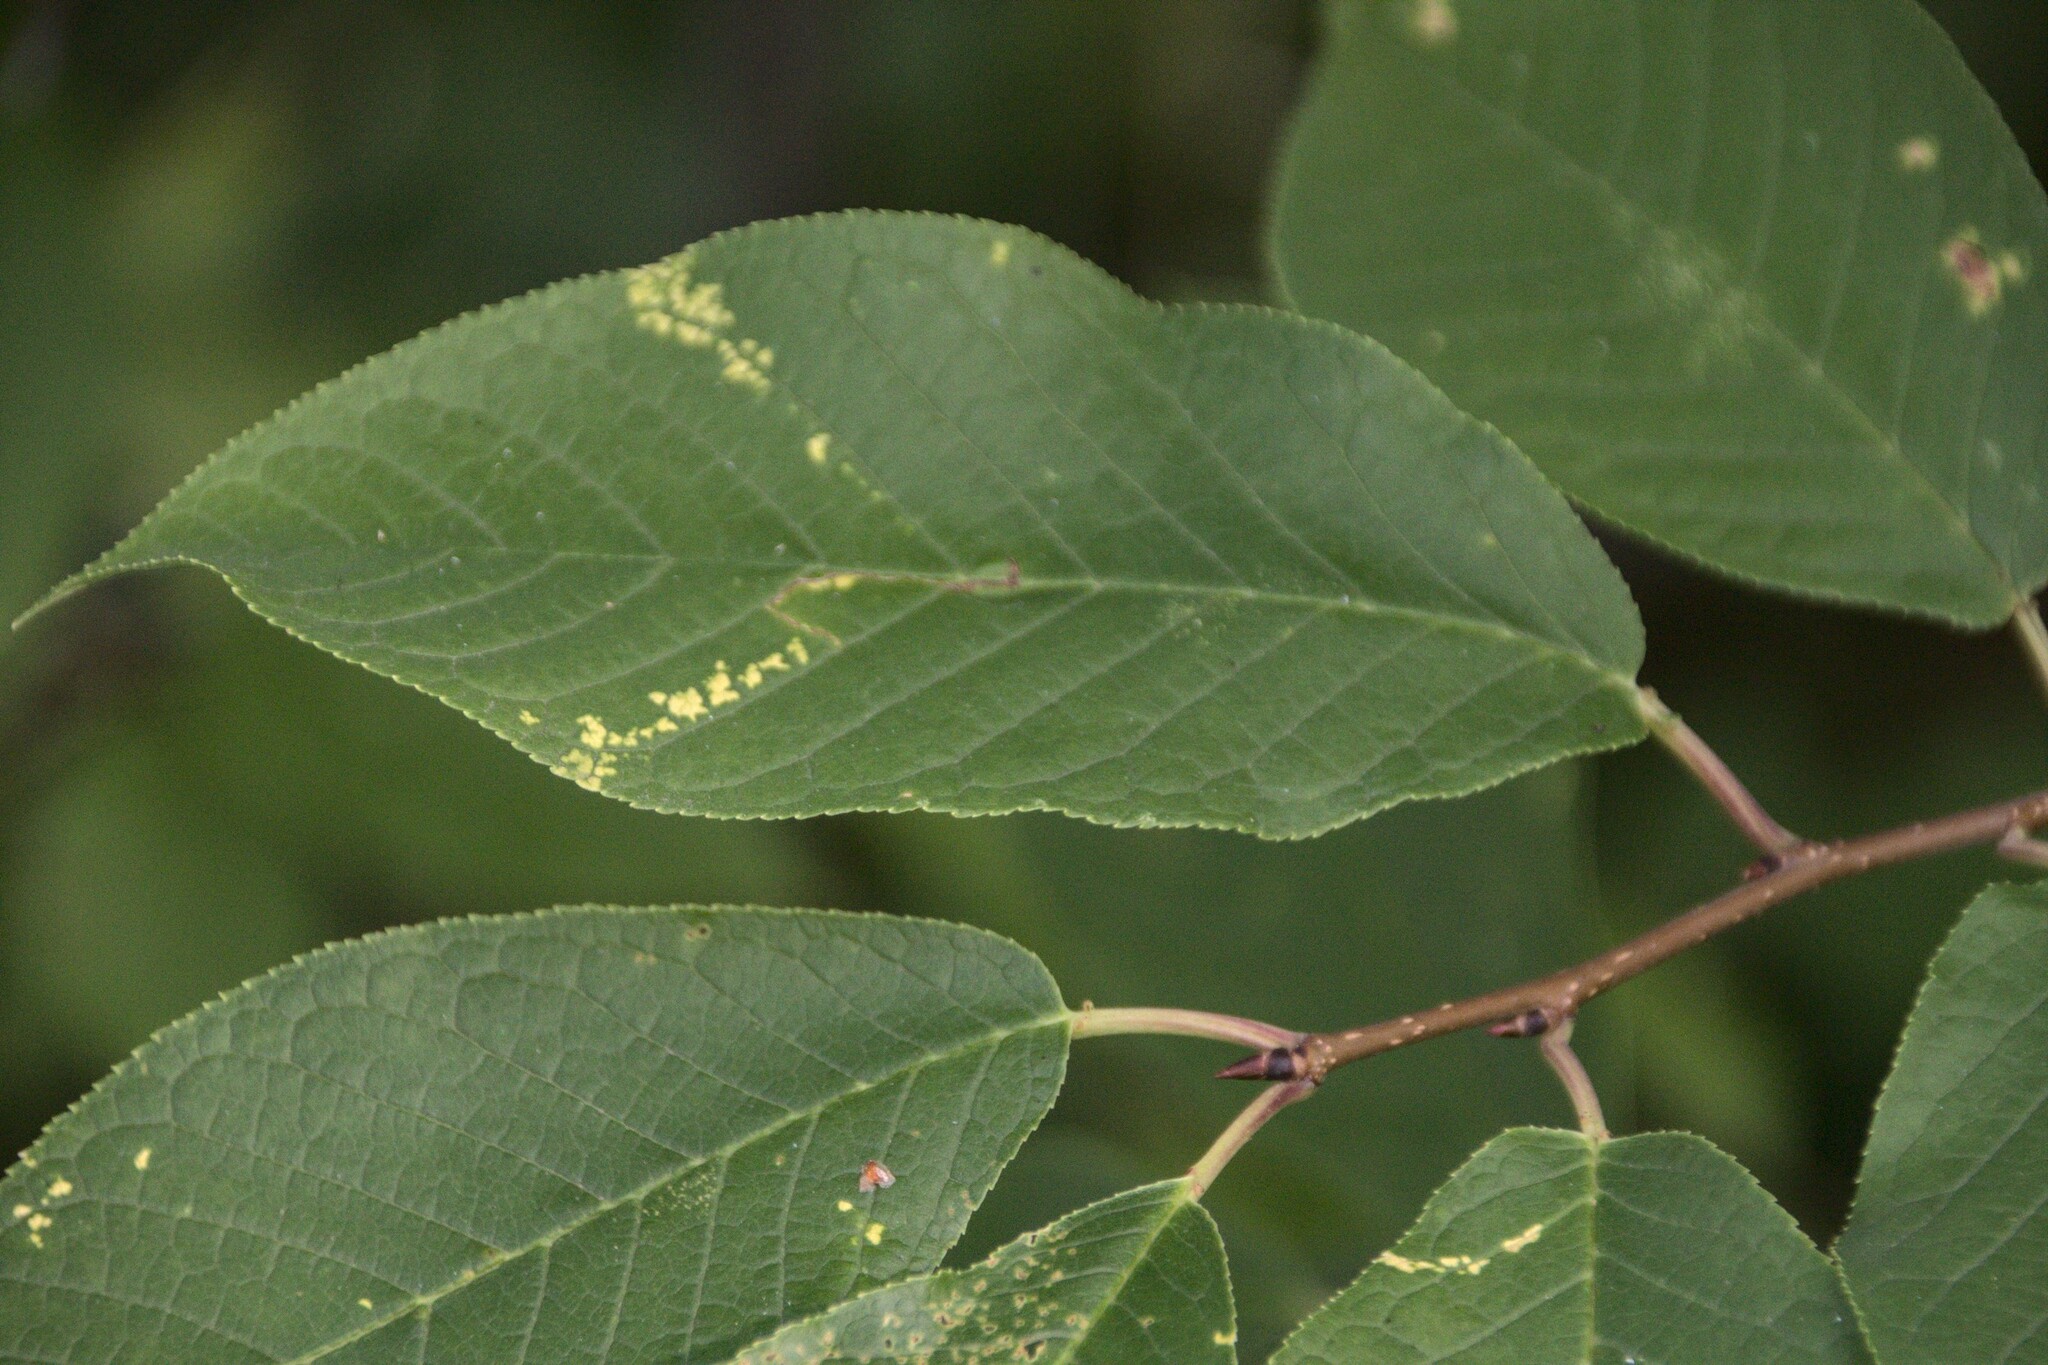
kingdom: Plantae
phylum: Tracheophyta
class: Magnoliopsida
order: Rosales
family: Rosaceae
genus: Prunus
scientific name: Prunus padus
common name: Bird cherry
